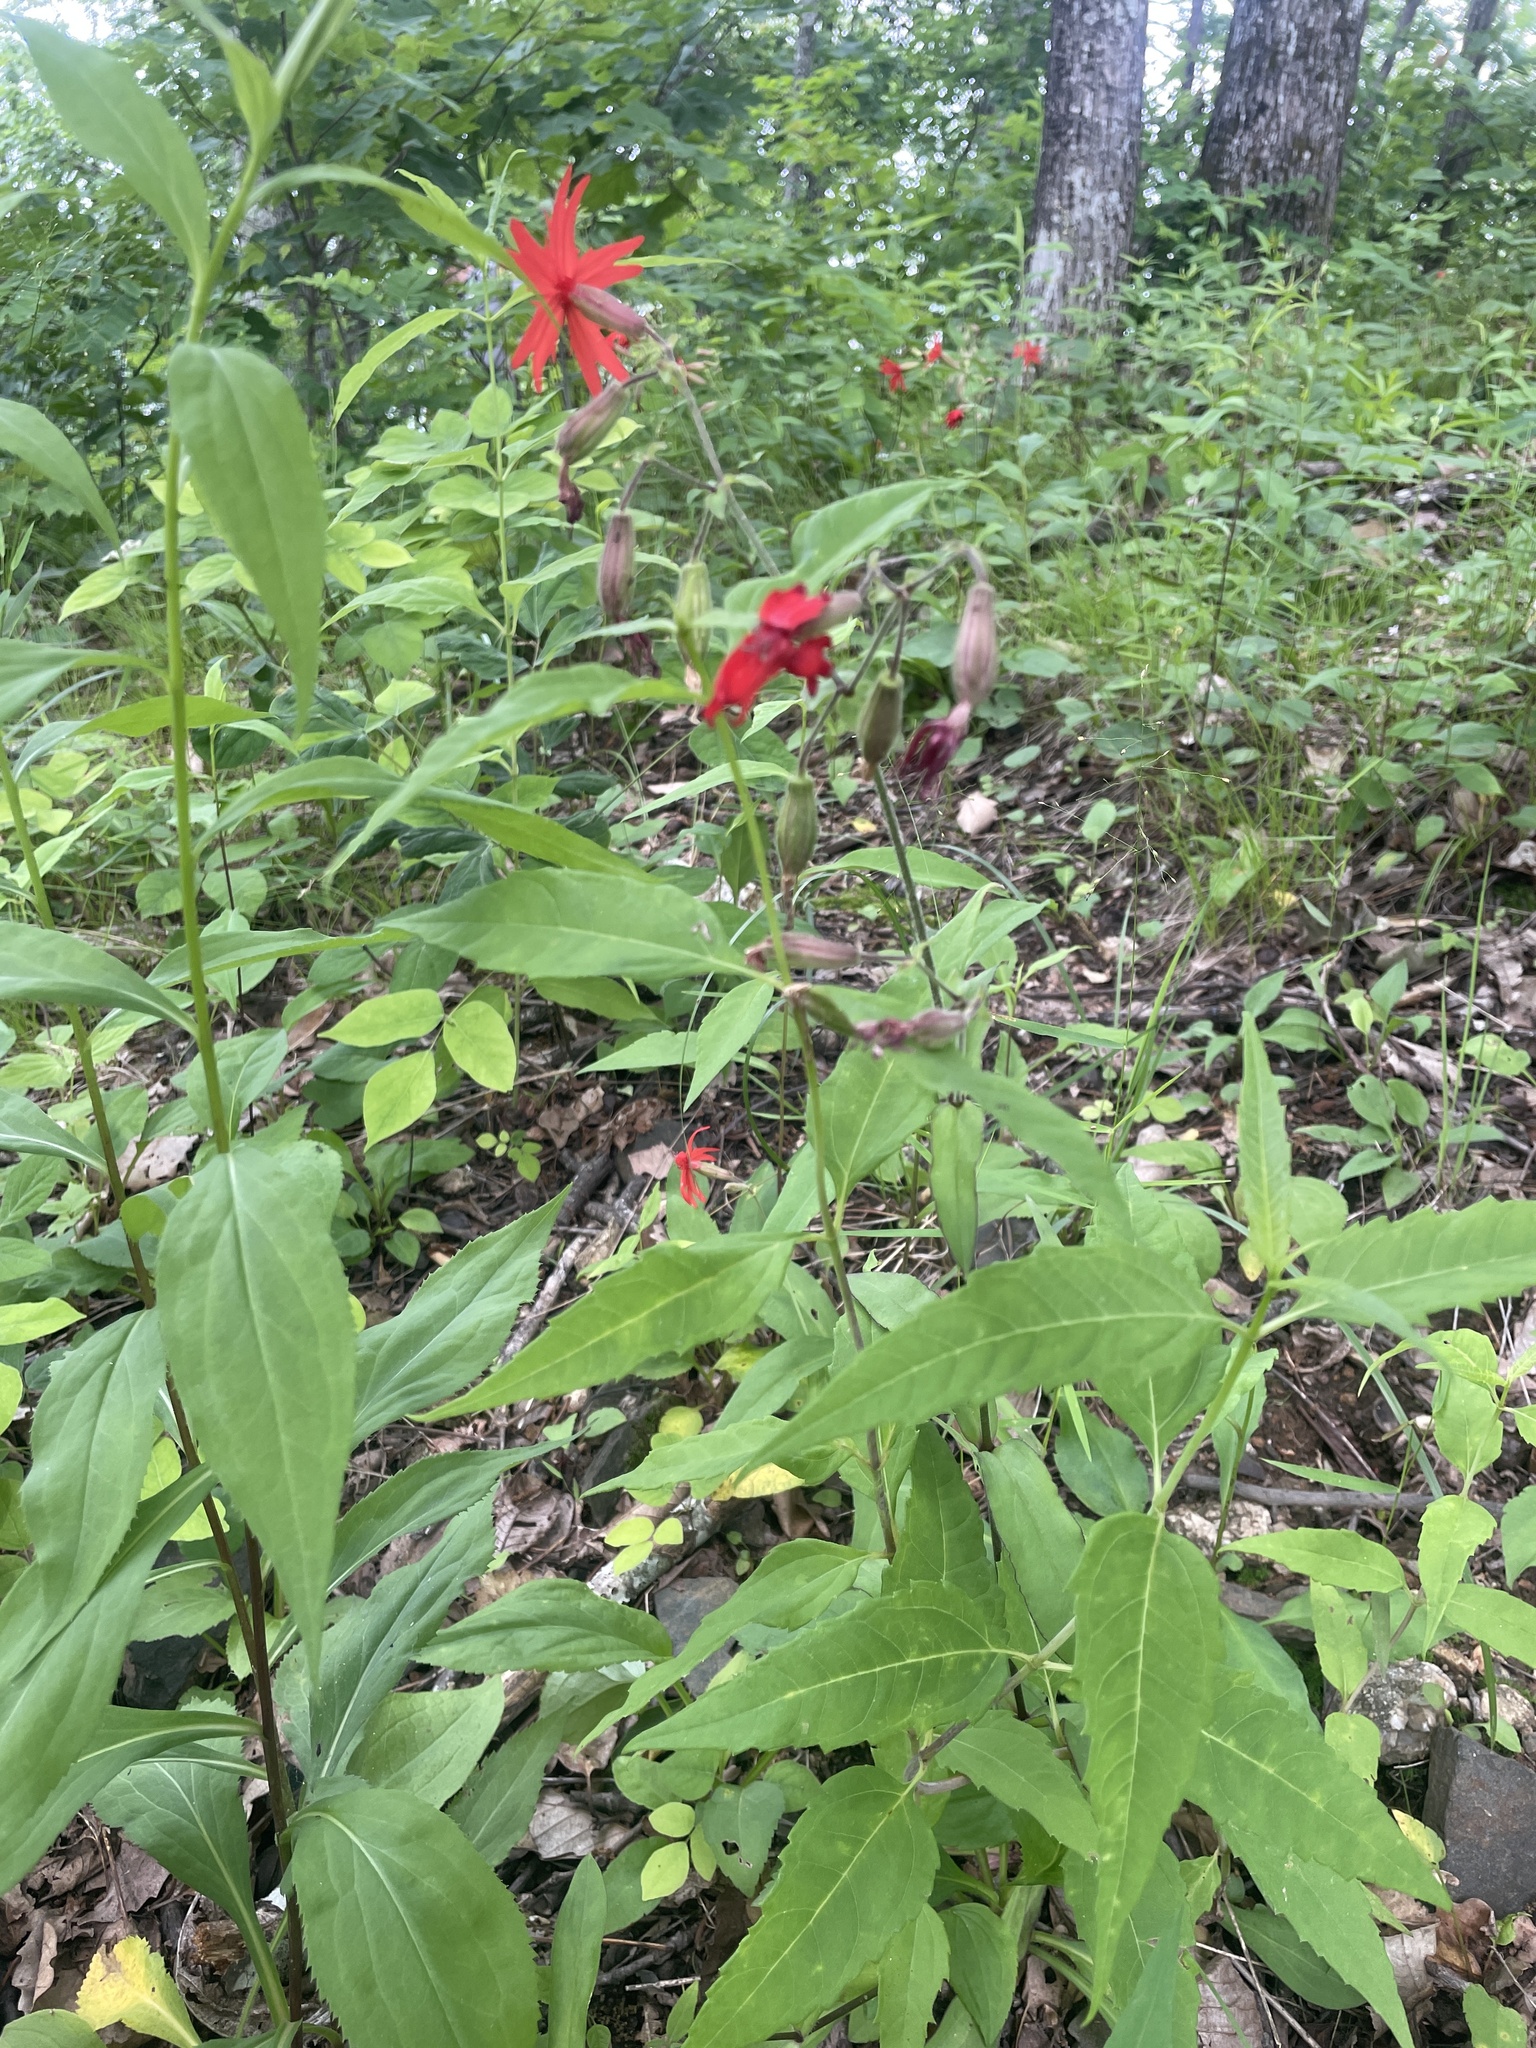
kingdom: Plantae
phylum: Tracheophyta
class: Magnoliopsida
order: Caryophyllales
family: Caryophyllaceae
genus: Silene
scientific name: Silene virginica
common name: Fire-pink
